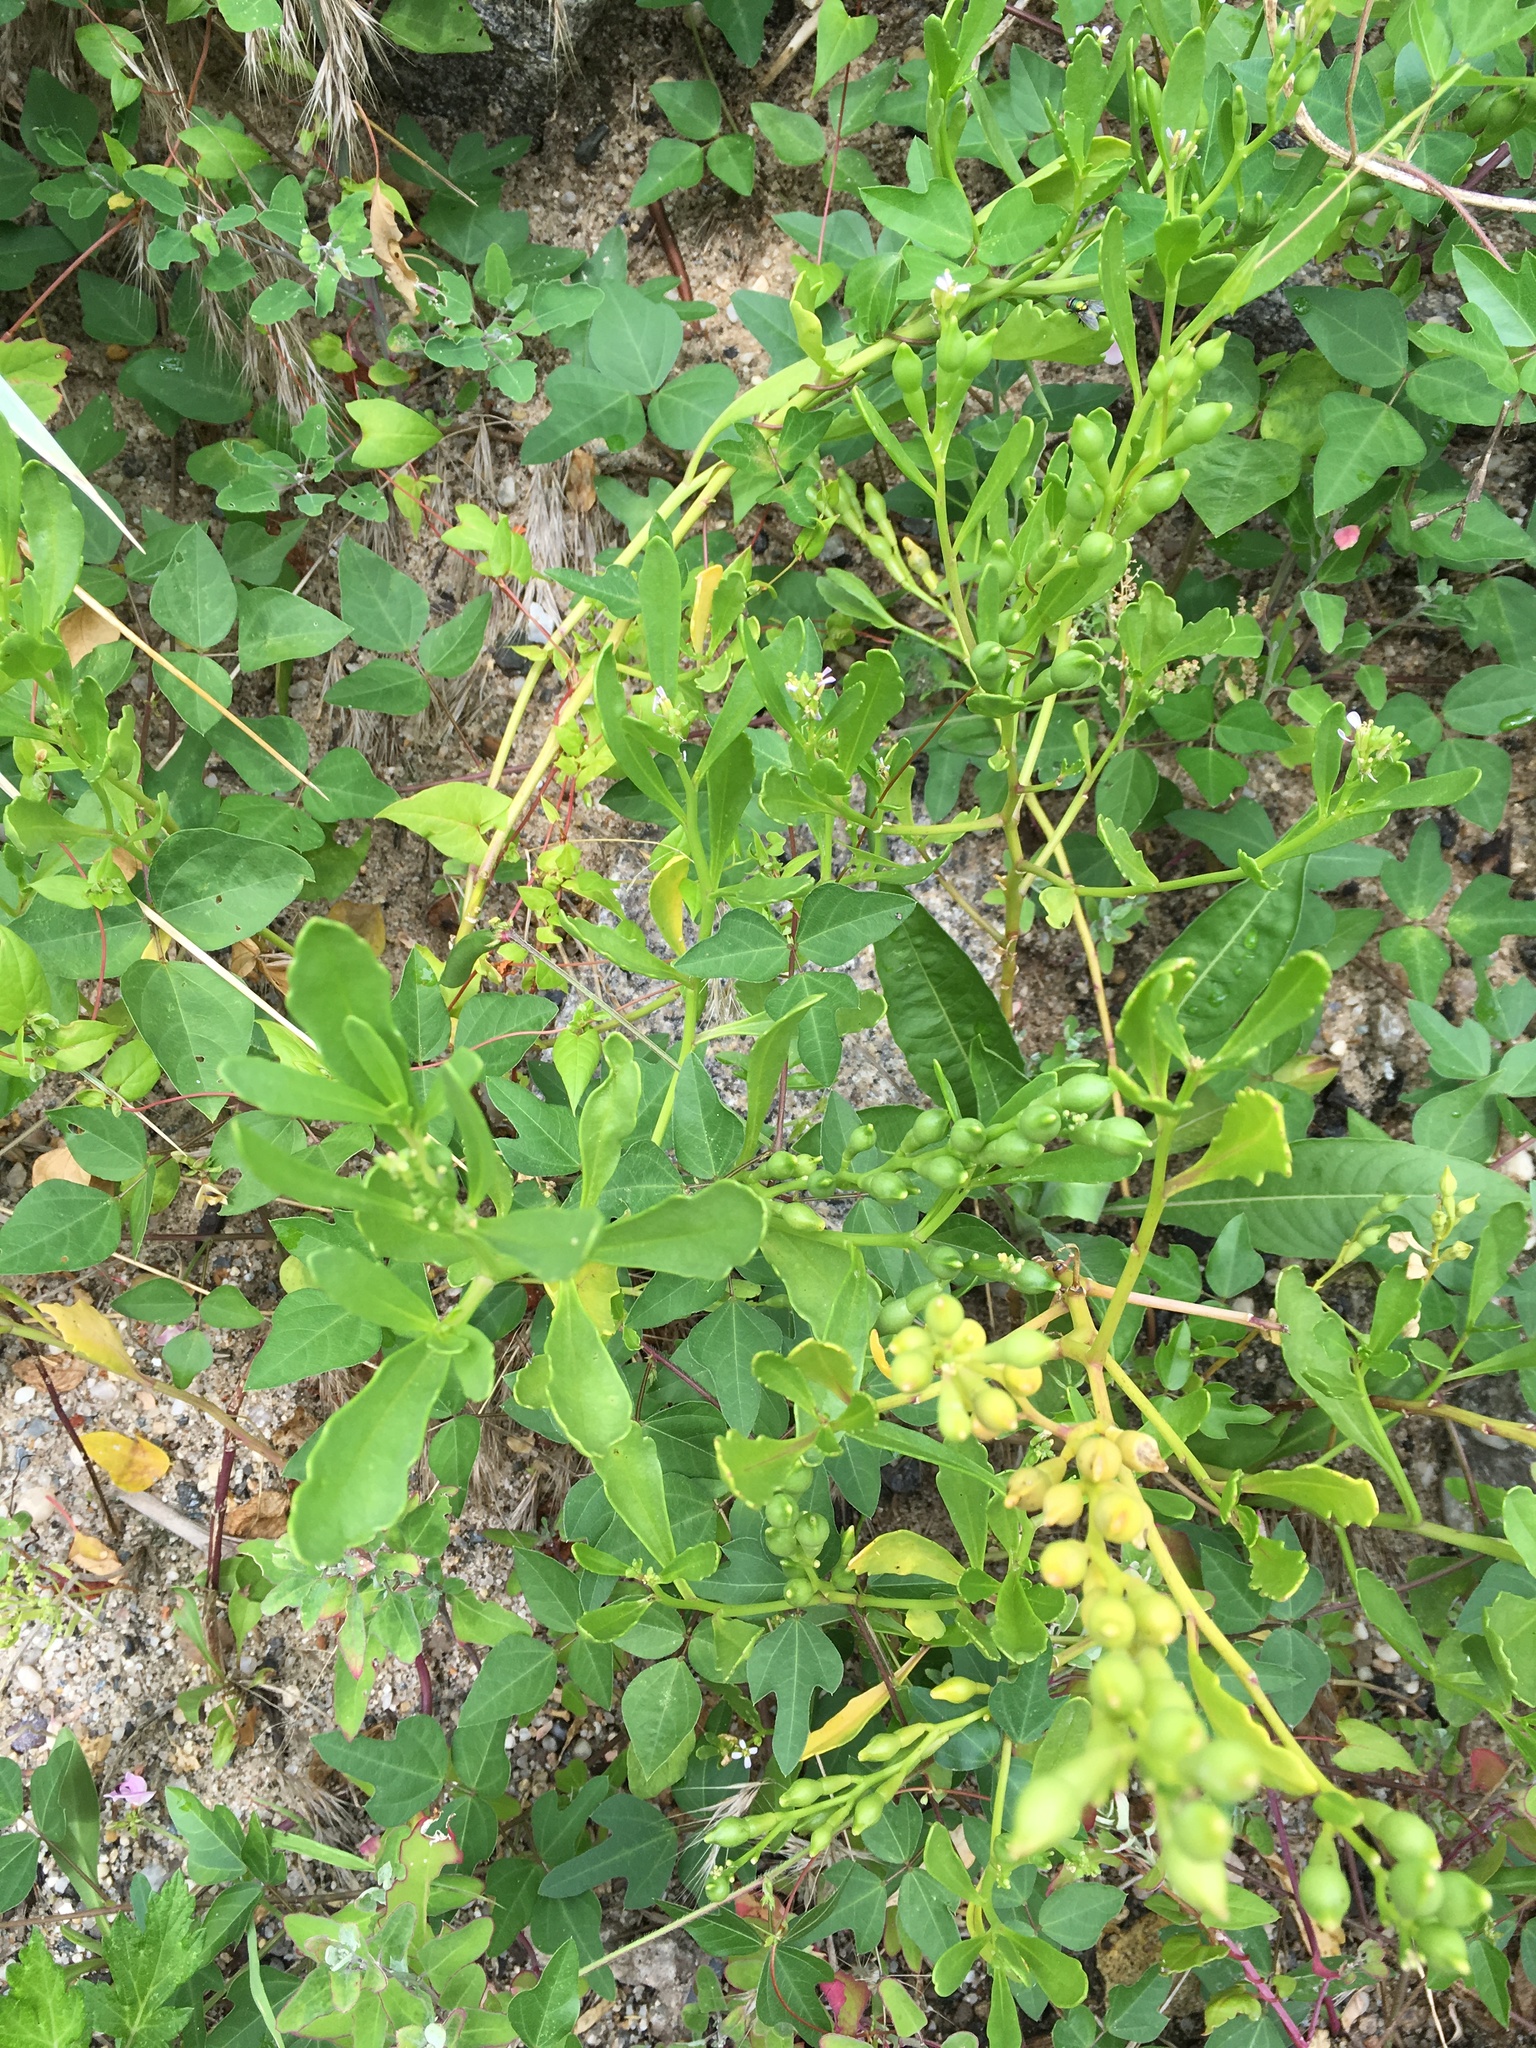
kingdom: Plantae
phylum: Tracheophyta
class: Magnoliopsida
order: Brassicales
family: Brassicaceae
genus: Cakile
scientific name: Cakile edentula
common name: American sea rocket
